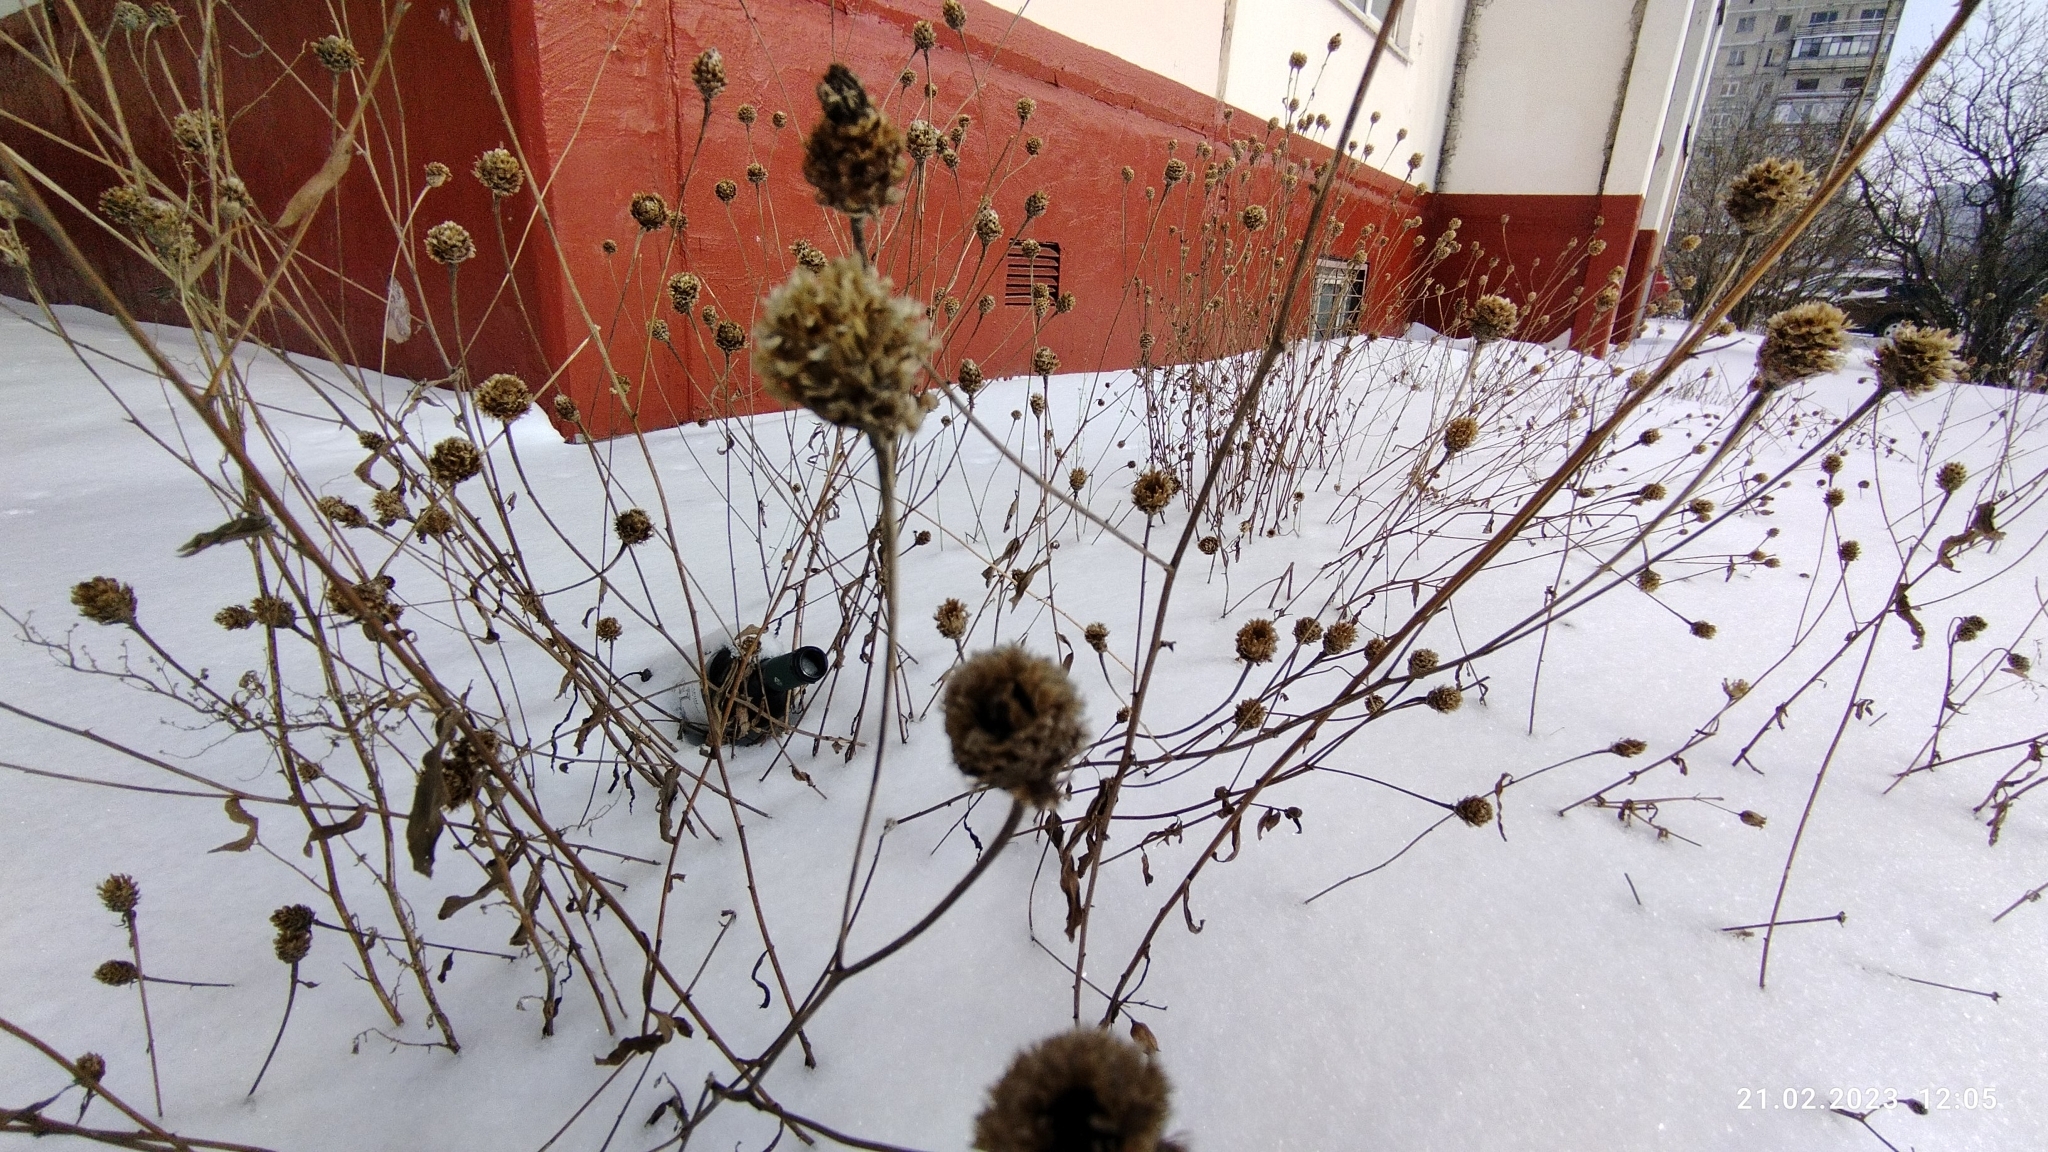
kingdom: Plantae
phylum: Tracheophyta
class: Magnoliopsida
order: Asterales
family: Asteraceae
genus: Centaurea
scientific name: Centaurea jacea
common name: Brown knapweed
